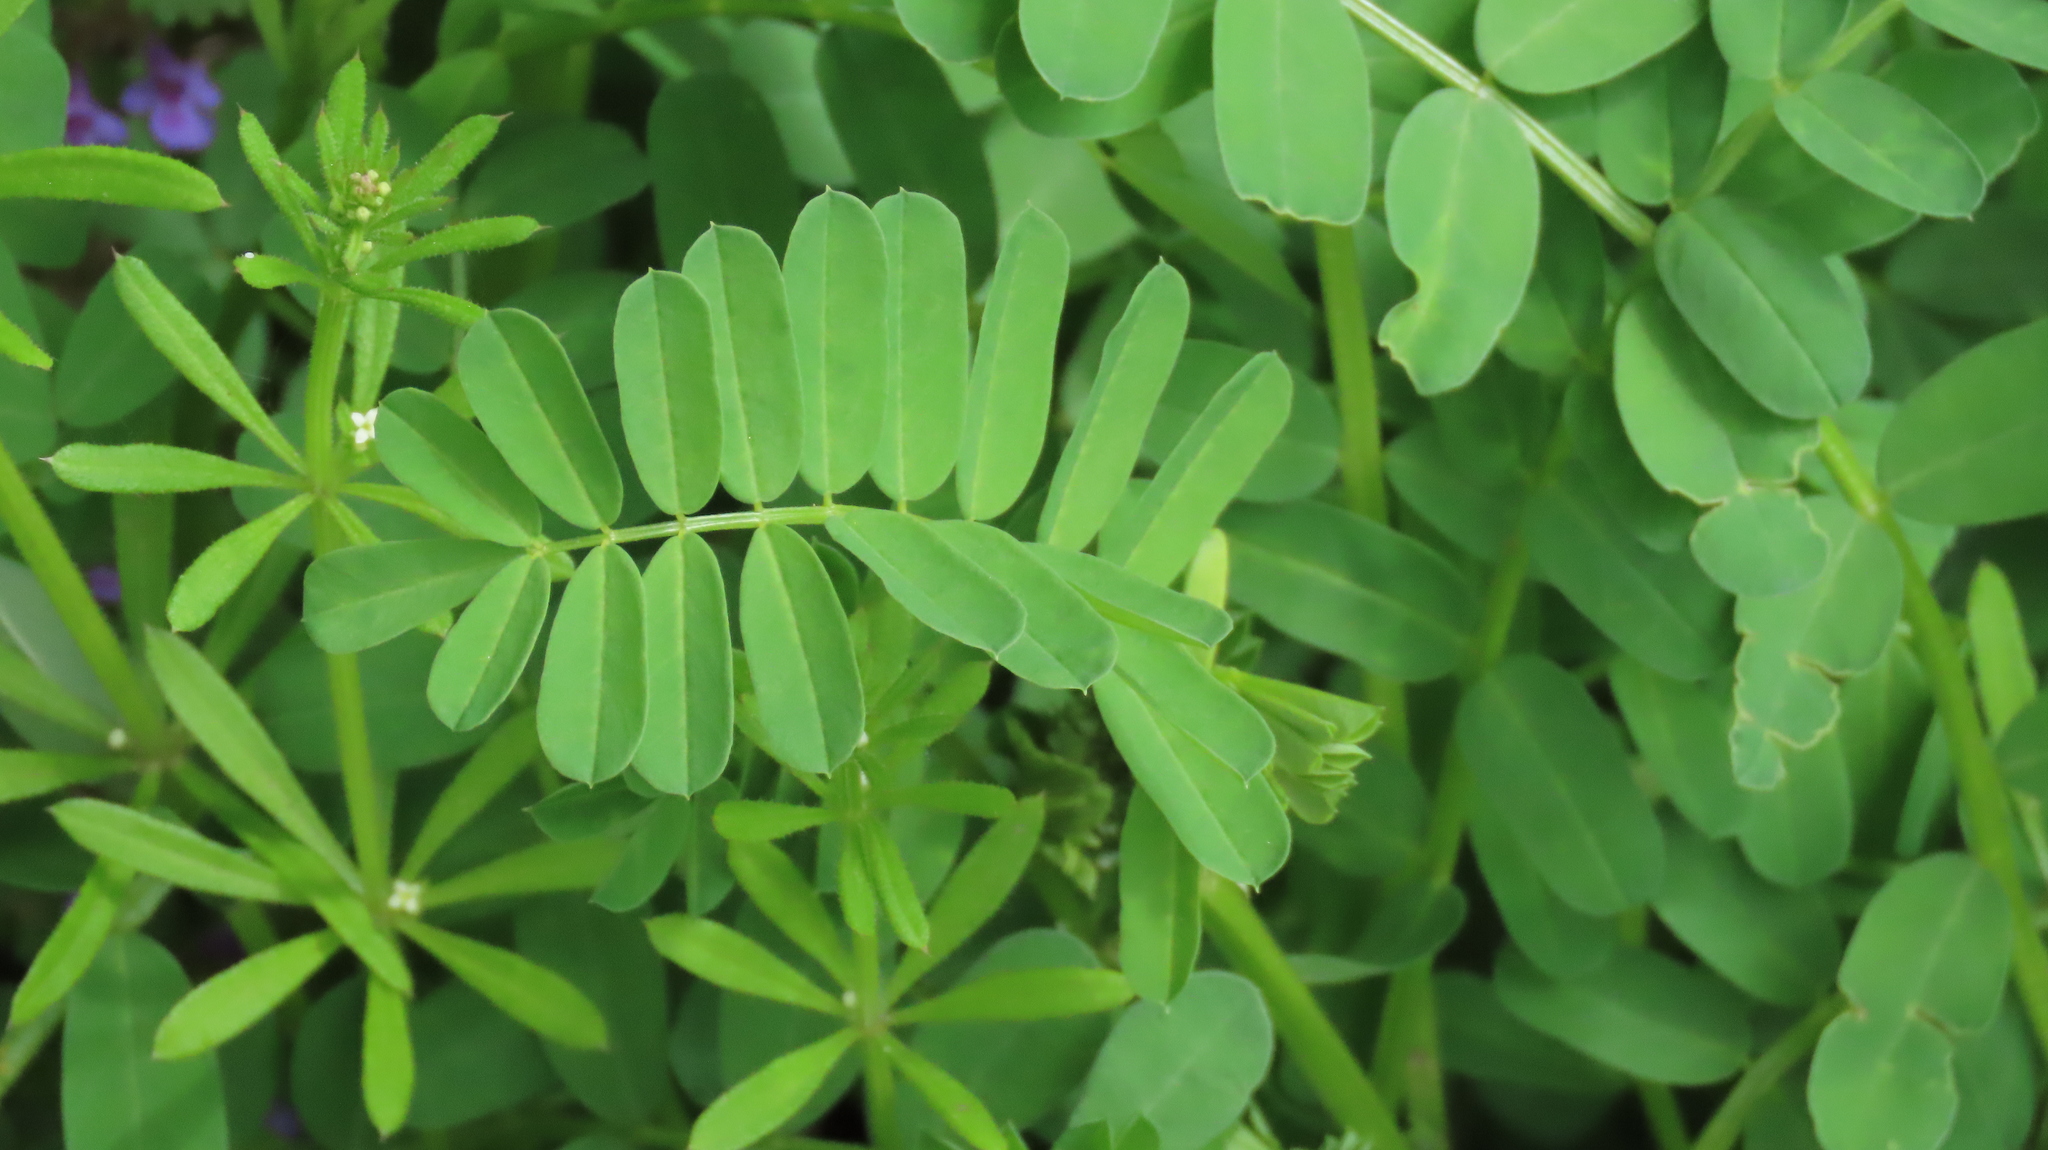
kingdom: Plantae
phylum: Tracheophyta
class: Magnoliopsida
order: Fabales
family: Fabaceae
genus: Coronilla
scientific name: Coronilla varia
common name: Crownvetch
